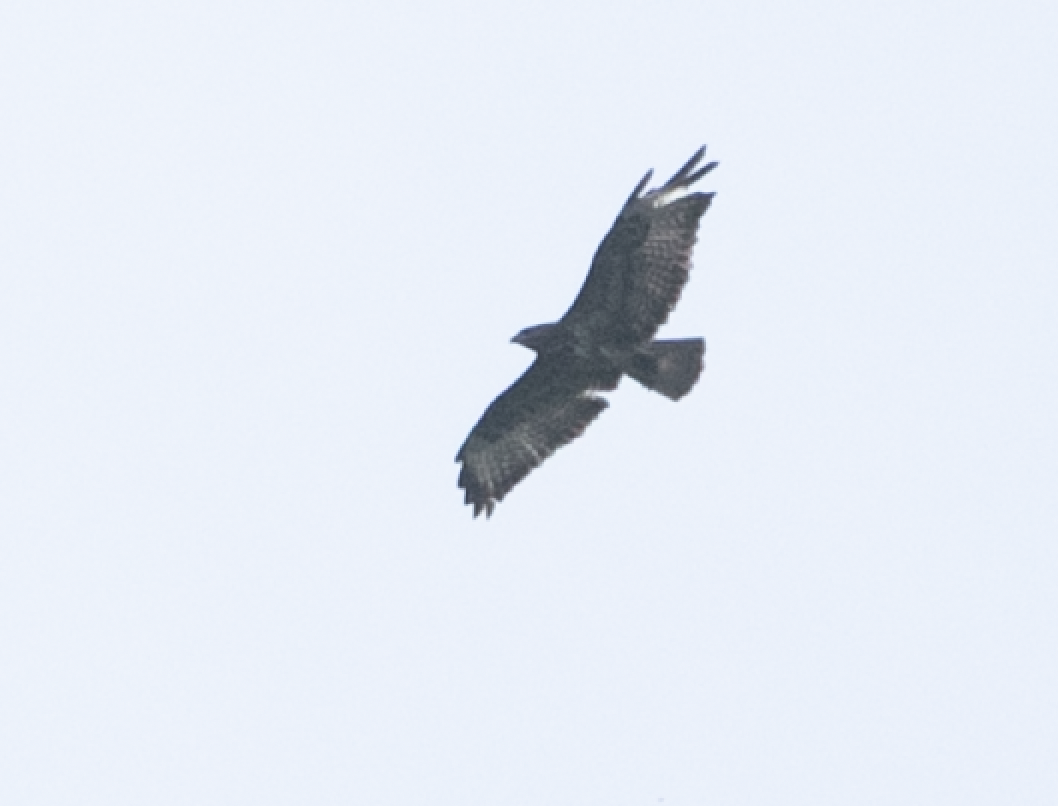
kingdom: Animalia
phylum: Chordata
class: Aves
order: Accipitriformes
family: Accipitridae
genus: Buteo
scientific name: Buteo buteo
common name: Common buzzard
